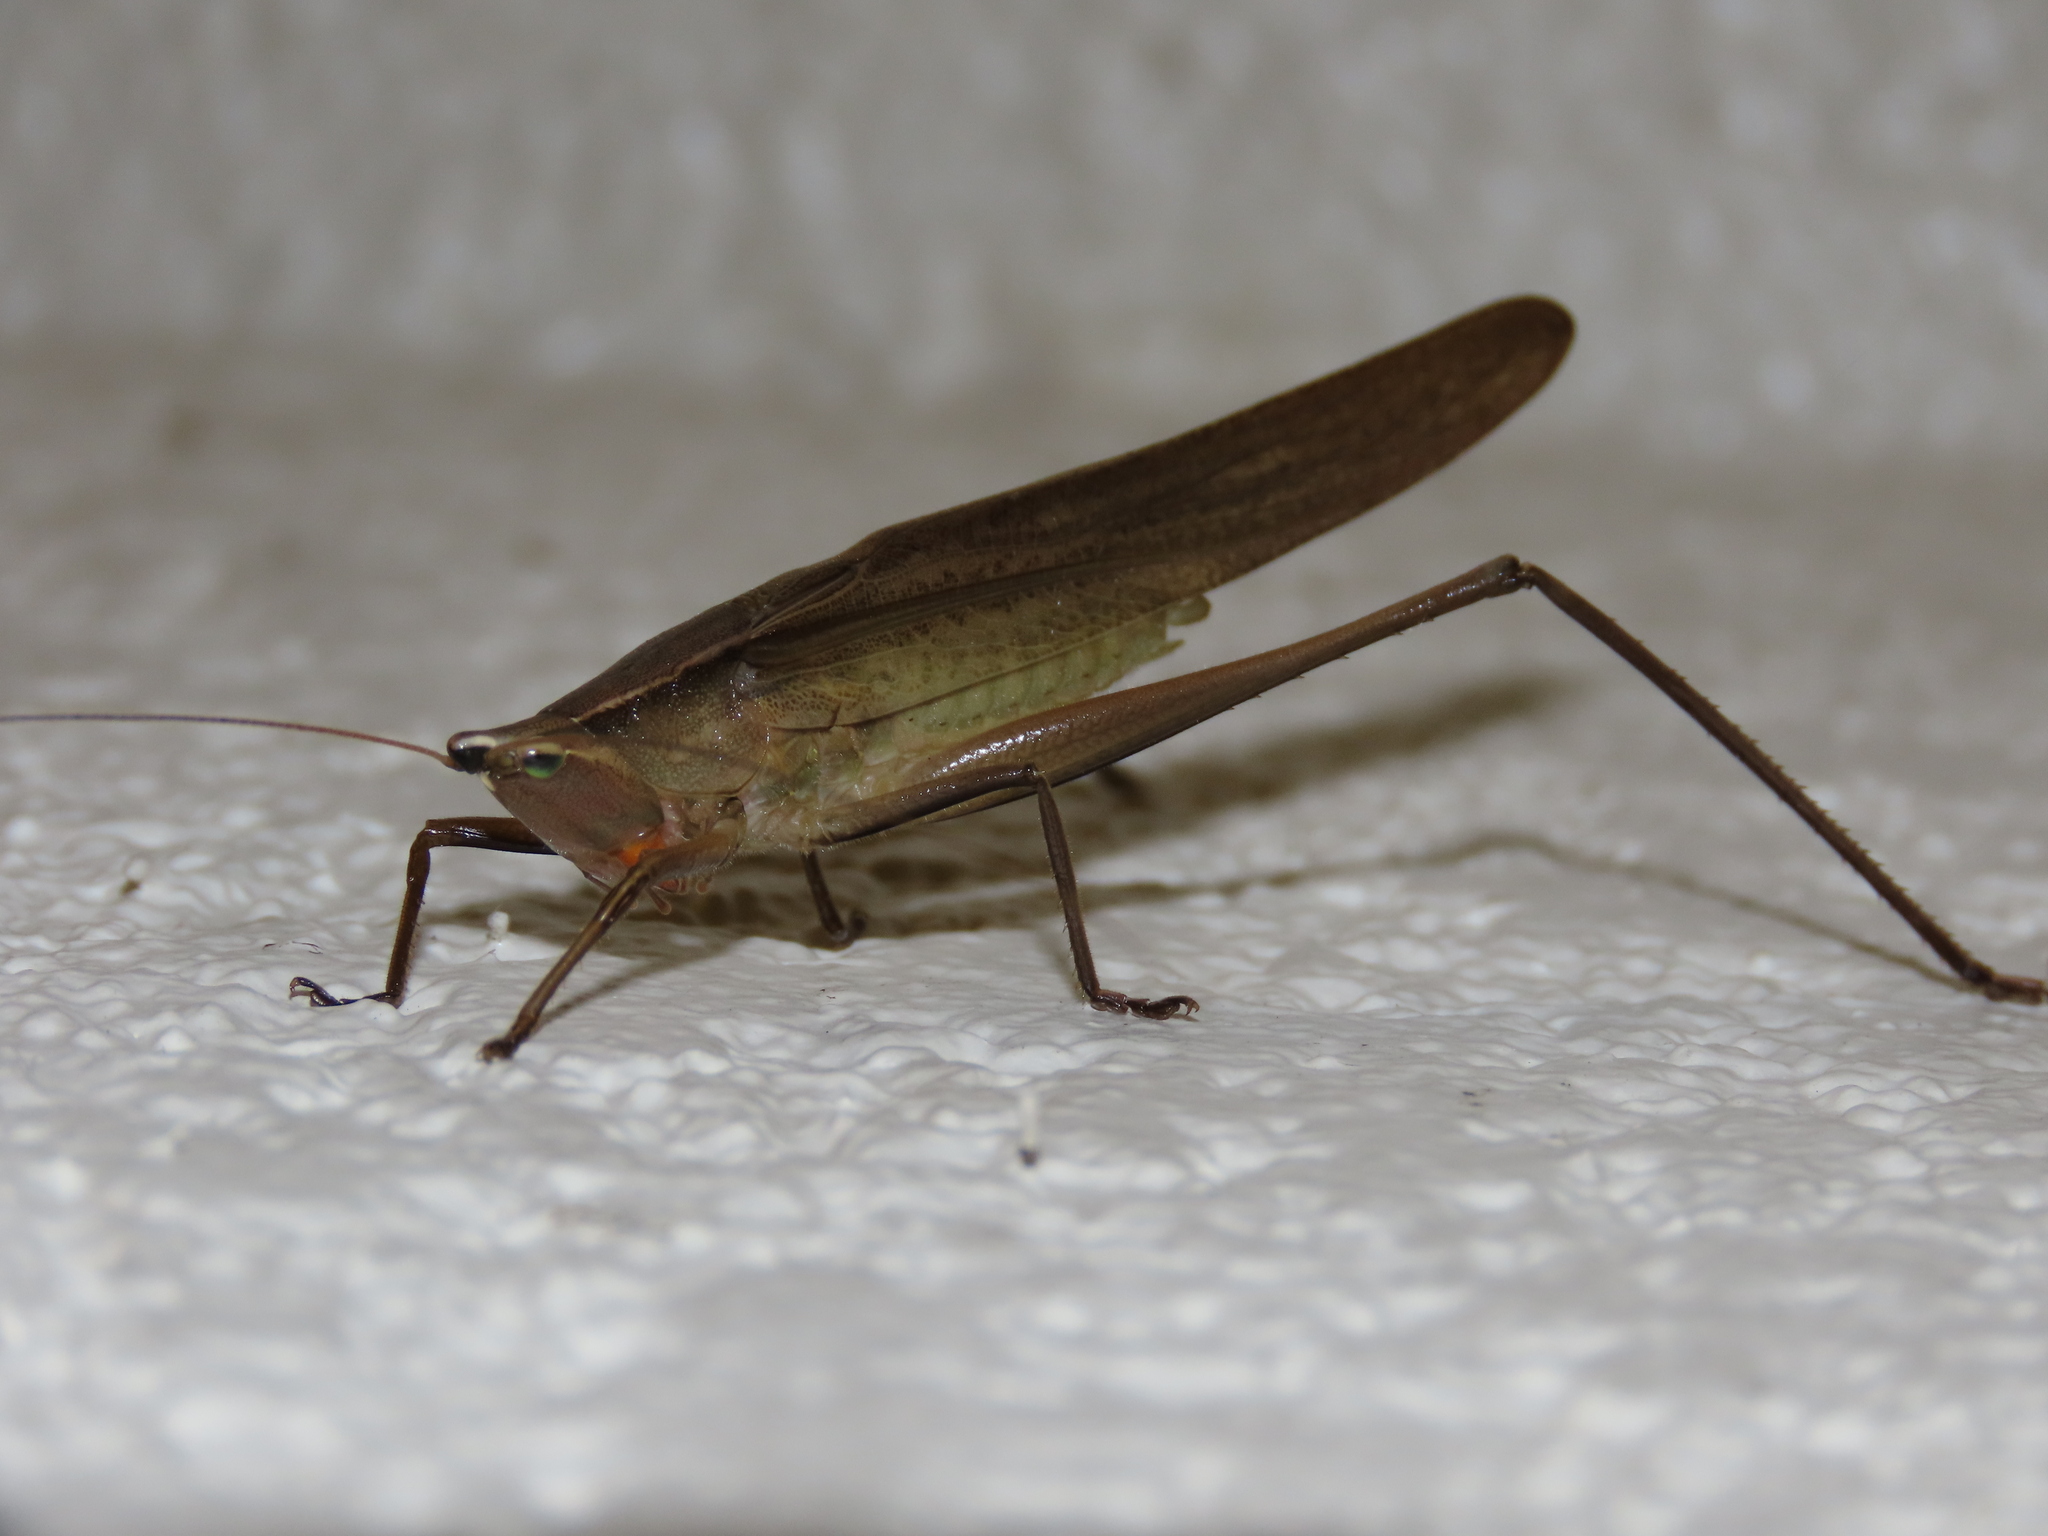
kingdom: Animalia
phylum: Arthropoda
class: Insecta
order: Orthoptera
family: Tettigoniidae
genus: Neoconocephalus
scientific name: Neoconocephalus triops
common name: Broad-tipped conehead
